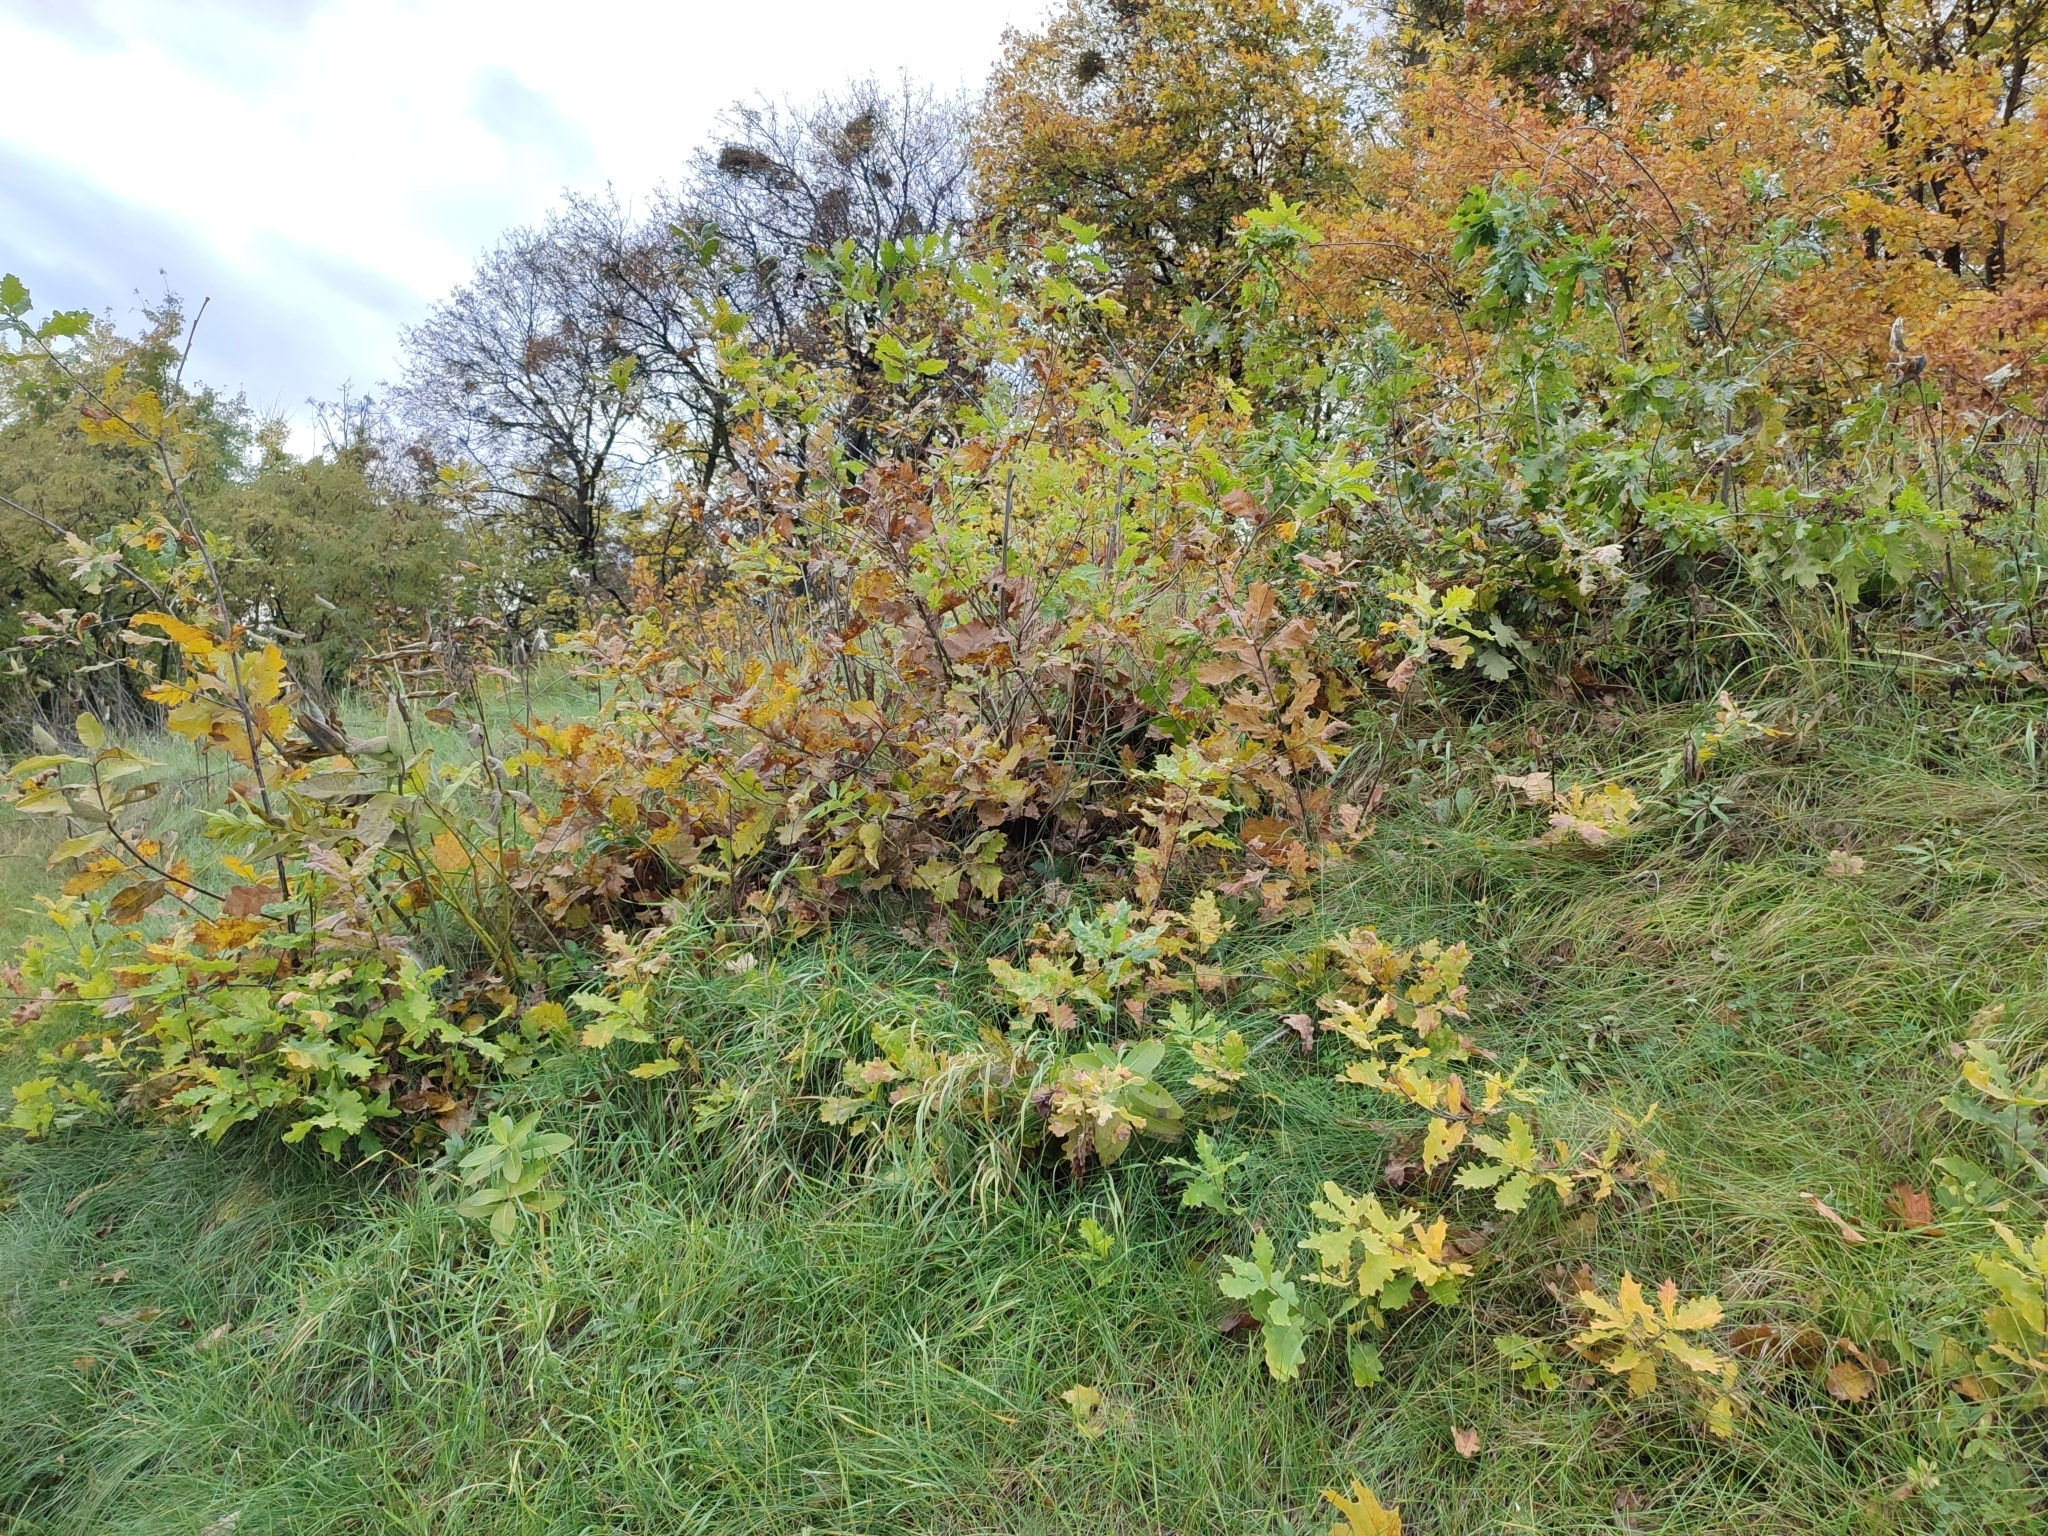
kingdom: Plantae
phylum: Tracheophyta
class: Magnoliopsida
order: Fagales
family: Fagaceae
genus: Quercus
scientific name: Quercus robur
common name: Pedunculate oak
